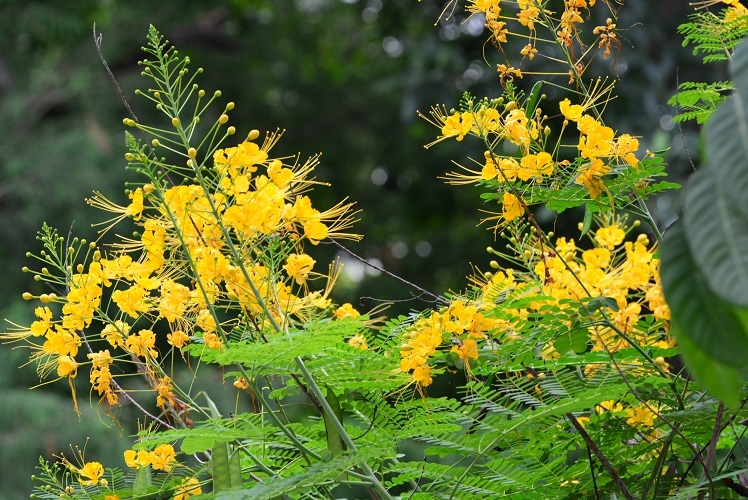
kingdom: Plantae
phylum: Tracheophyta
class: Magnoliopsida
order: Fabales
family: Fabaceae
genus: Caesalpinia
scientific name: Caesalpinia pulcherrima
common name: Pride-of-barbados
